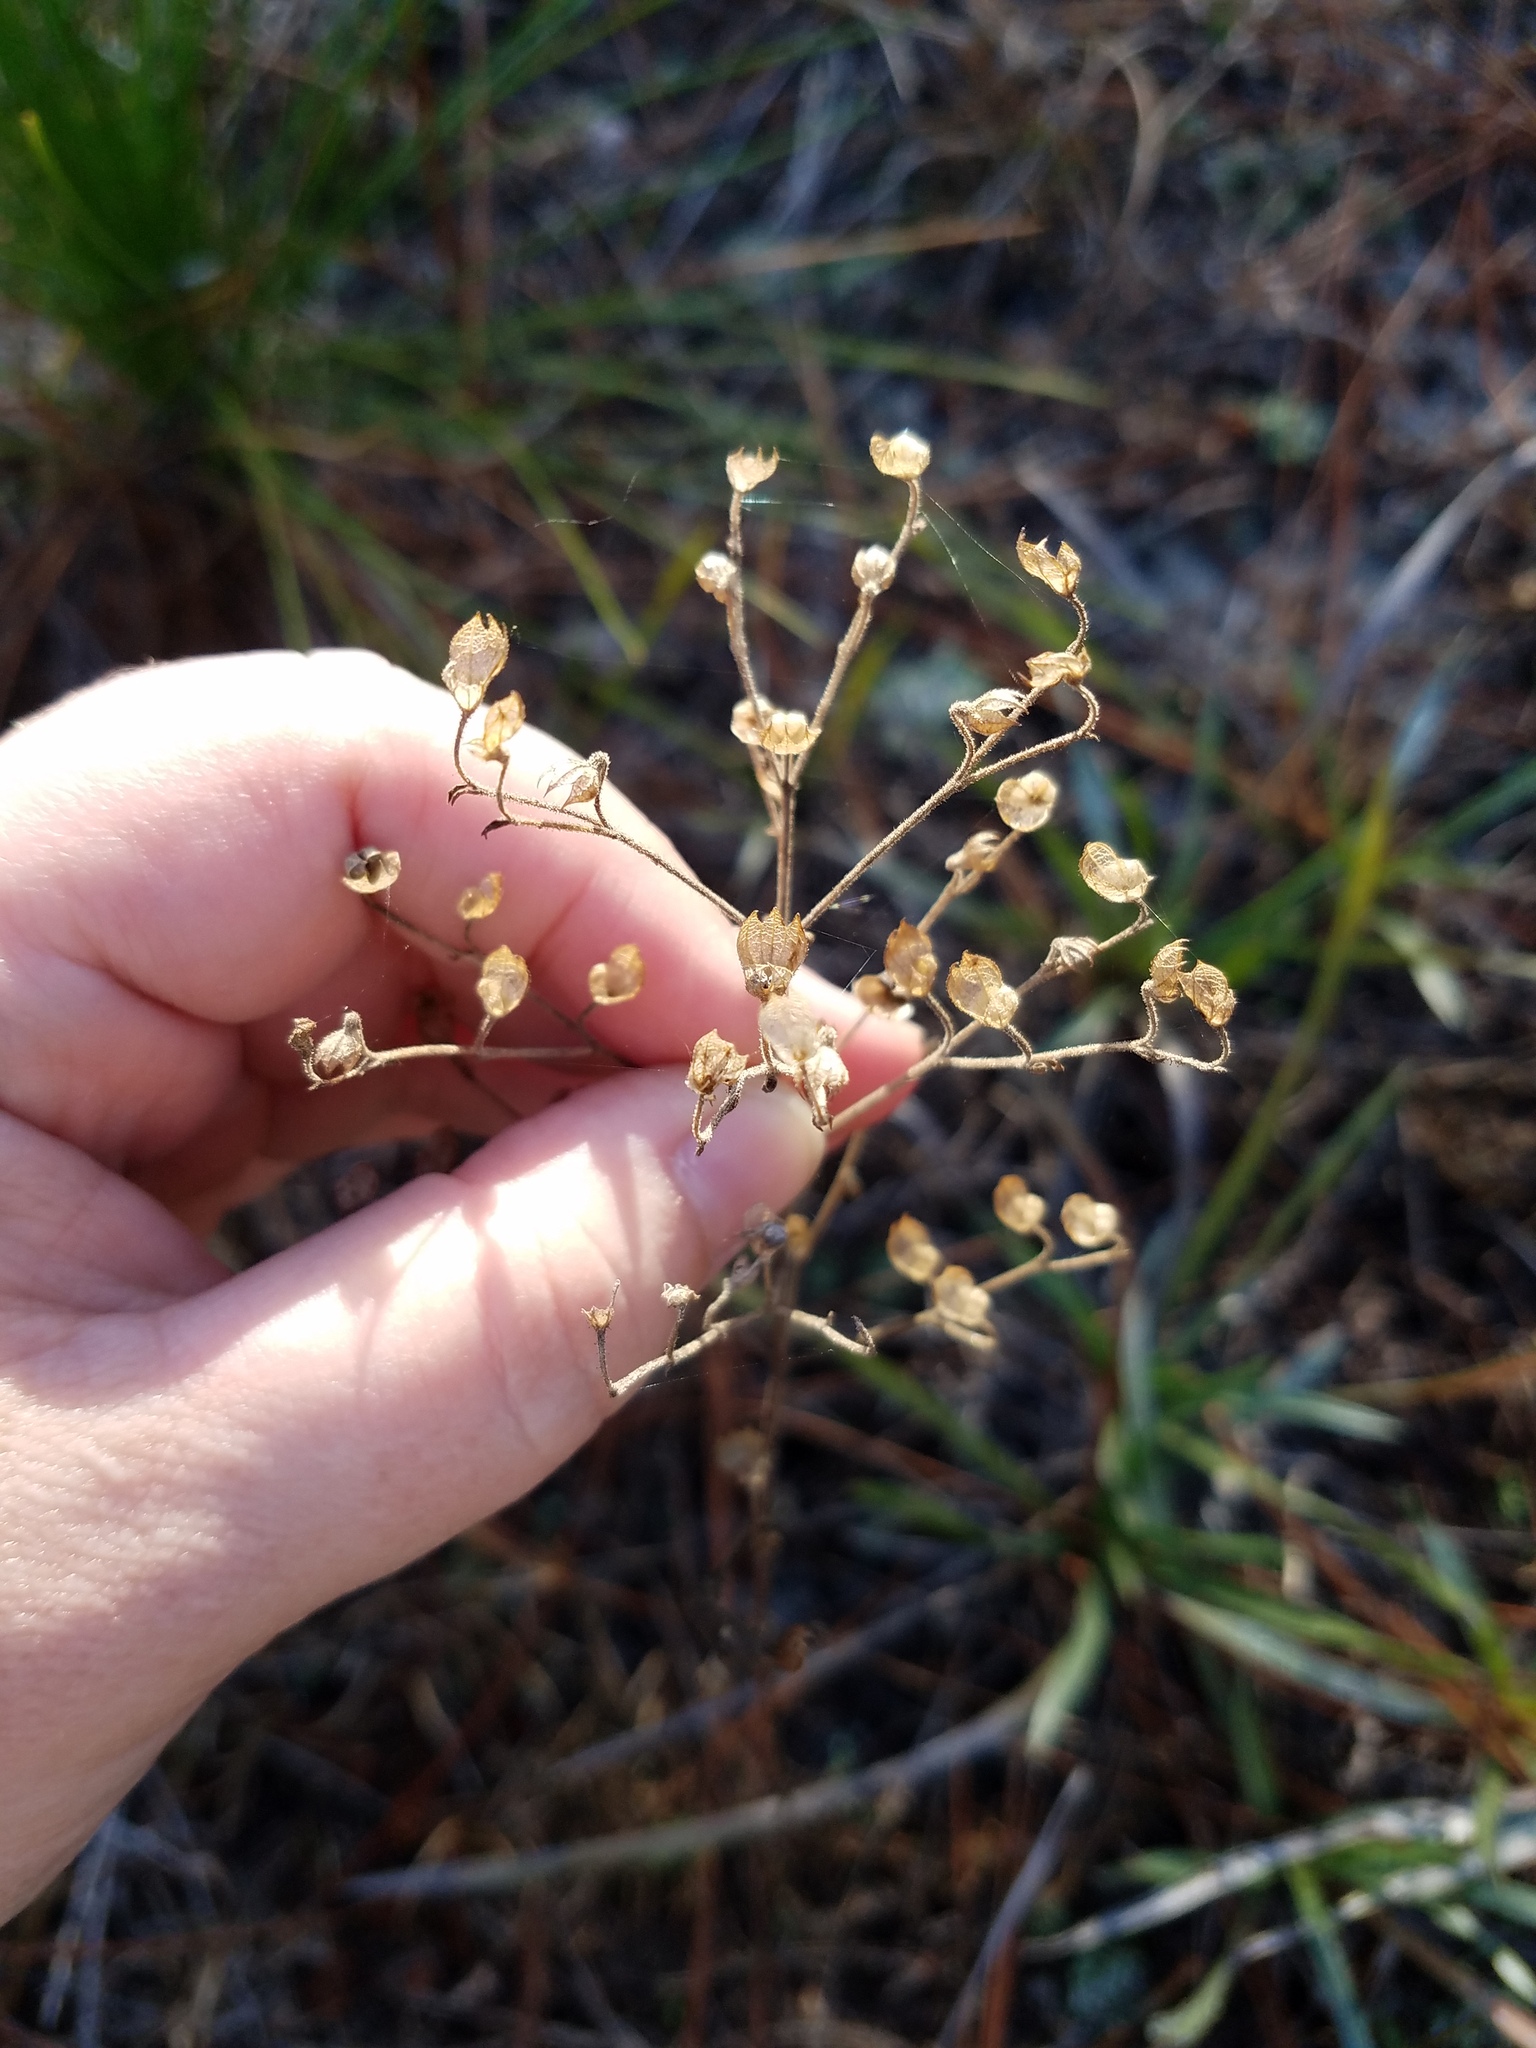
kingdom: Plantae
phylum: Tracheophyta
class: Magnoliopsida
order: Lamiales
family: Lamiaceae
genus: Trichostema
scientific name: Trichostema dichotomum
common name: Bastard pennyroyal
